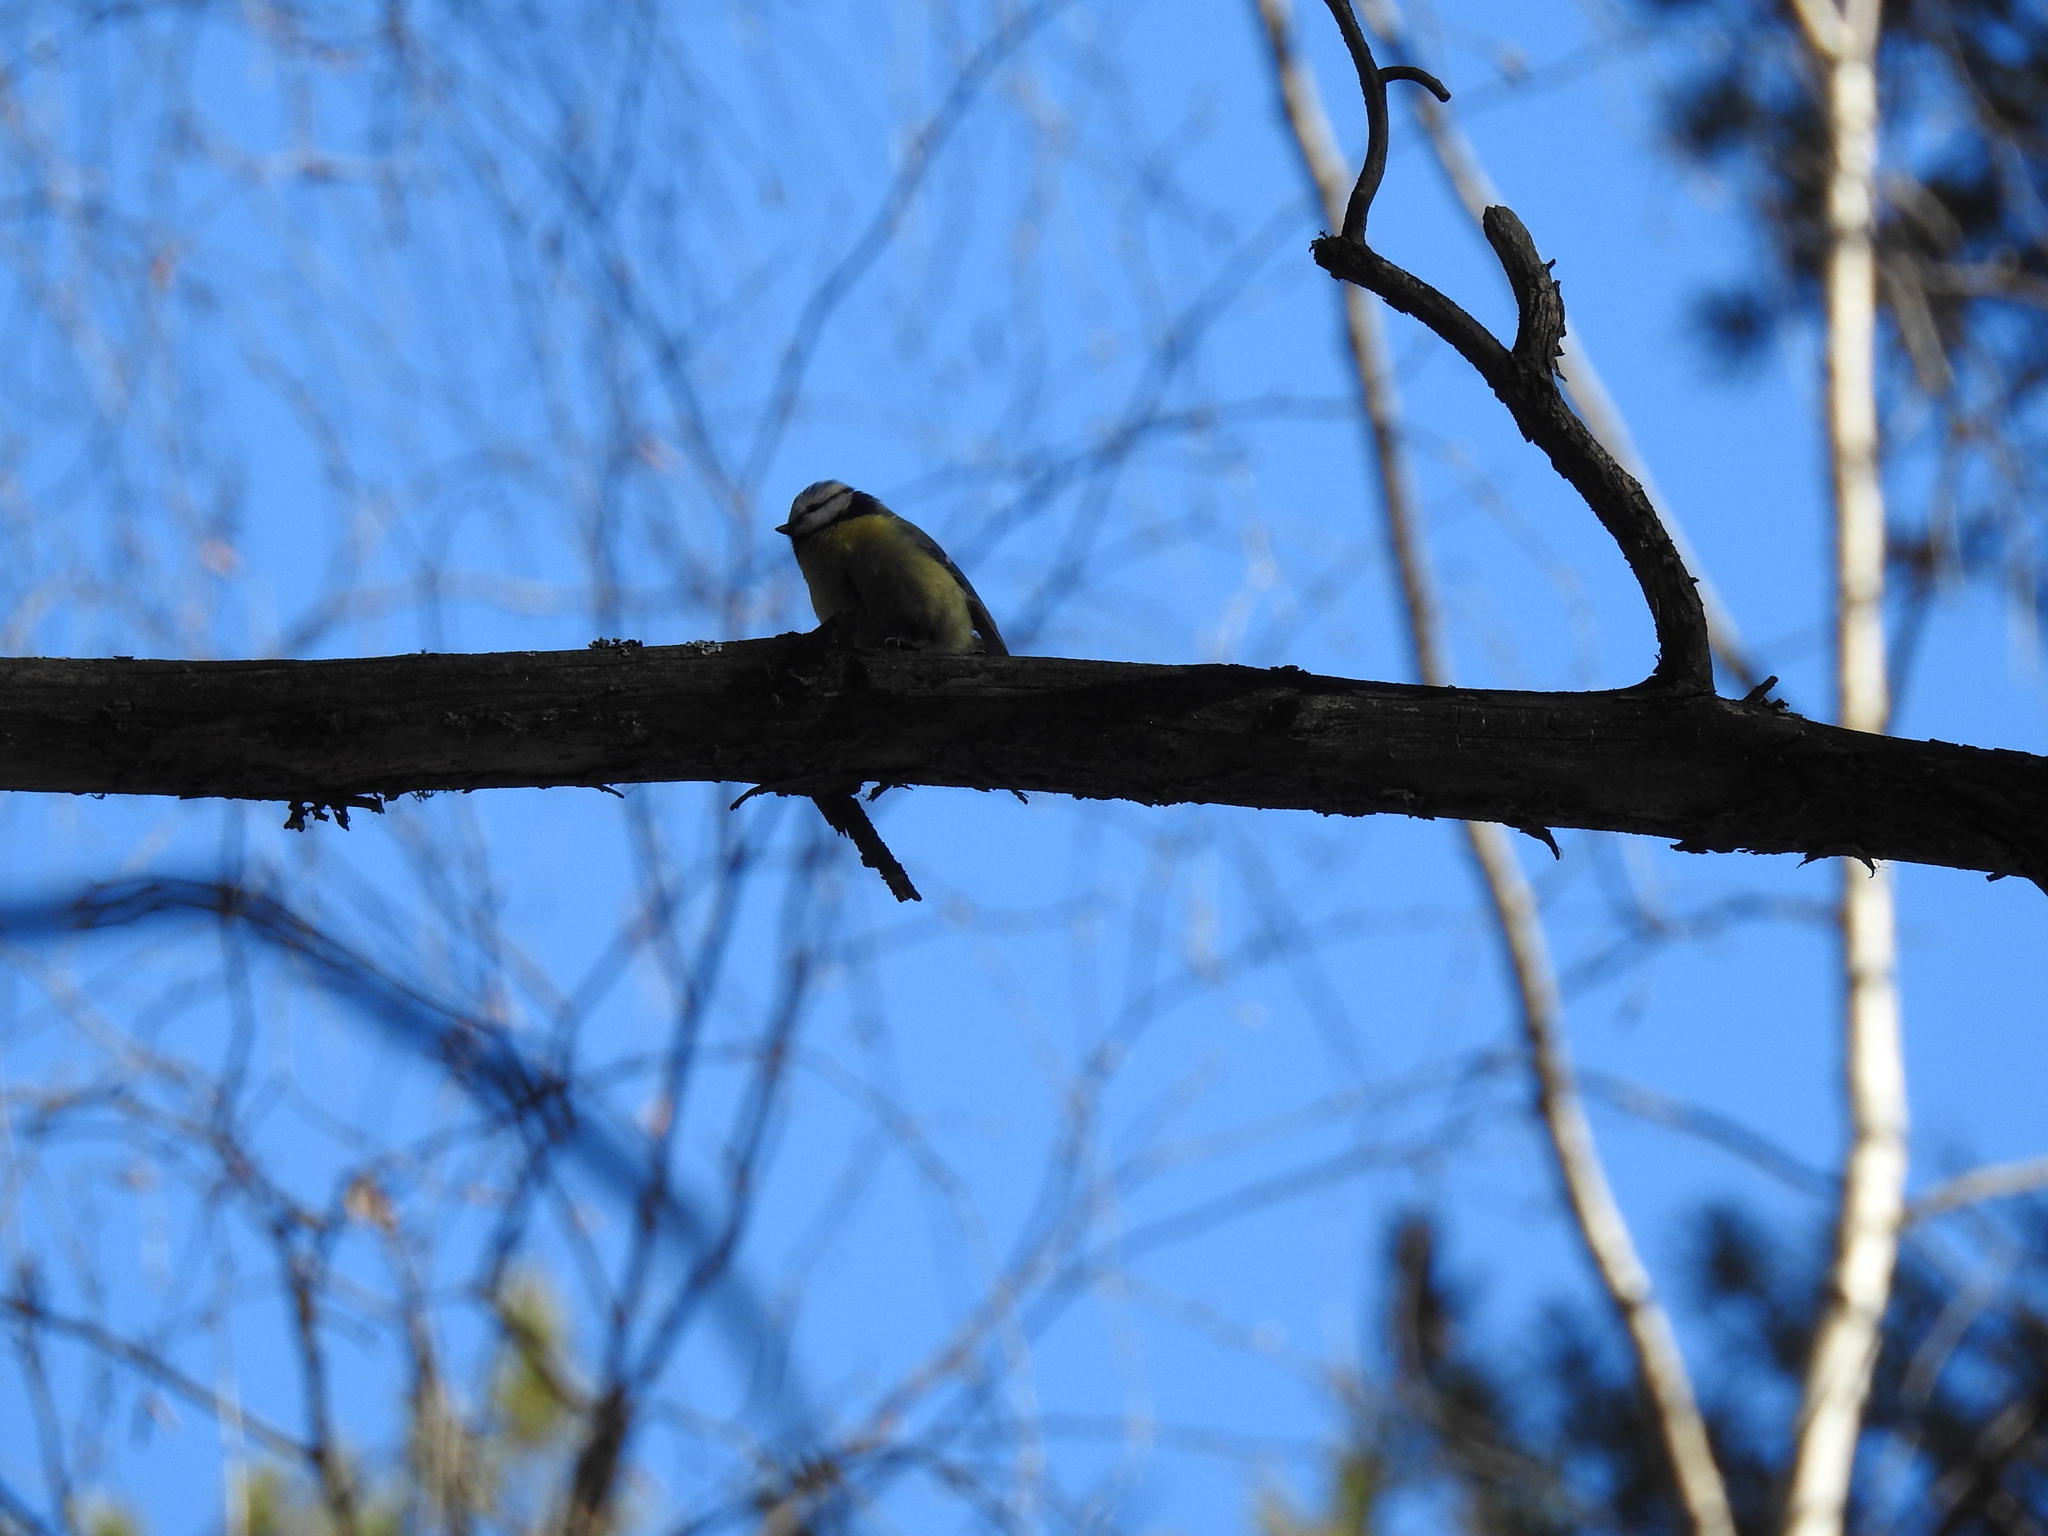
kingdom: Animalia
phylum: Chordata
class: Aves
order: Passeriformes
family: Paridae
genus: Cyanistes
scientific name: Cyanistes caeruleus
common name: Eurasian blue tit
